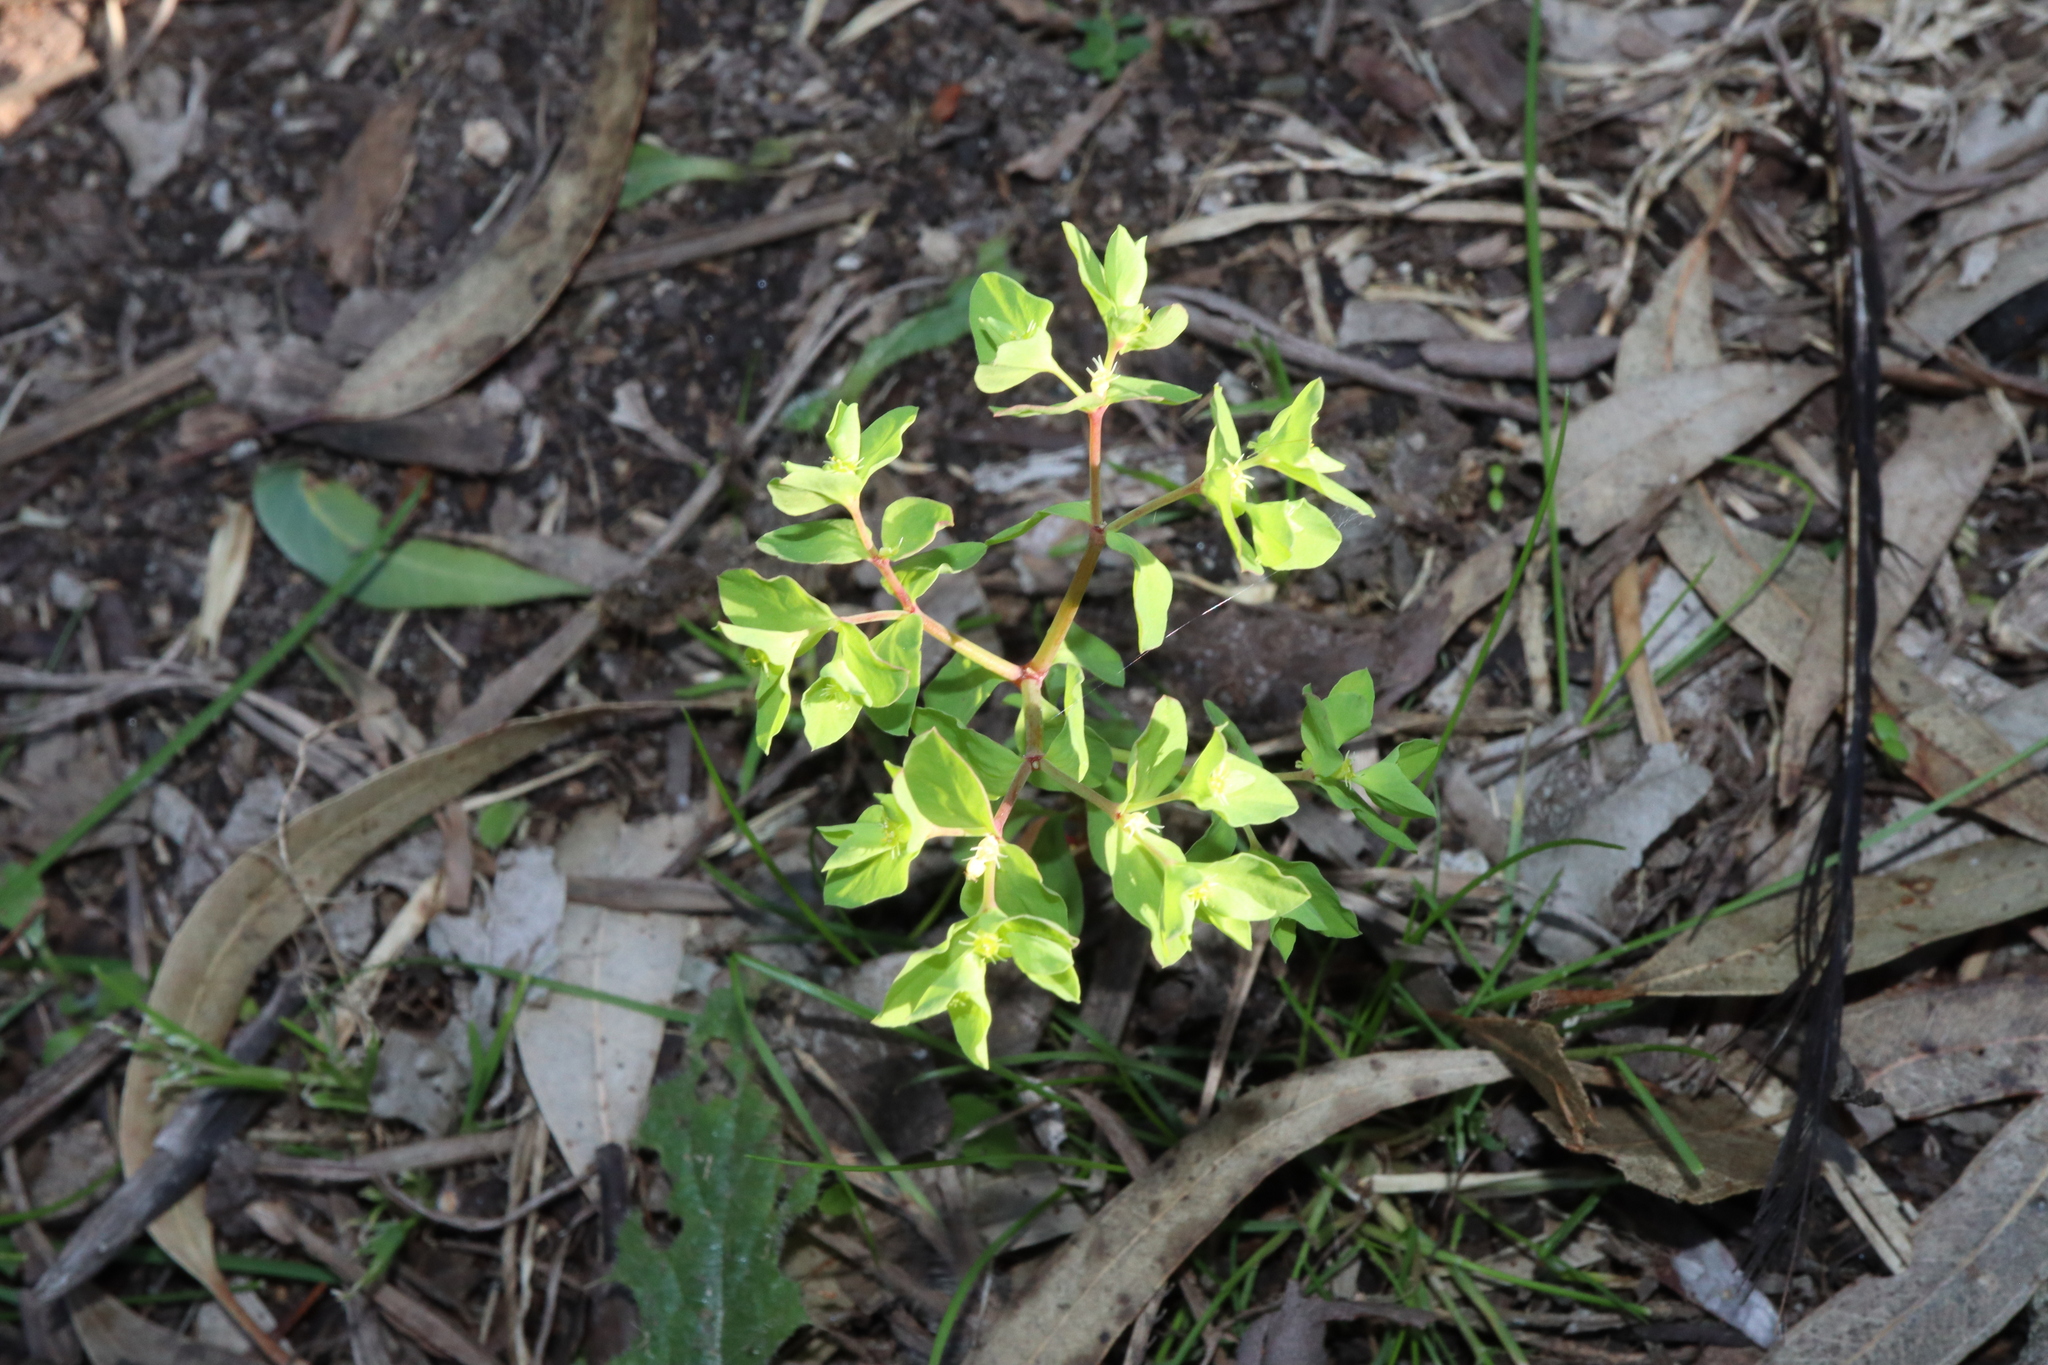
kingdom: Plantae
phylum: Tracheophyta
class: Magnoliopsida
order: Malpighiales
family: Euphorbiaceae
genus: Euphorbia
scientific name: Euphorbia peplus
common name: Petty spurge
